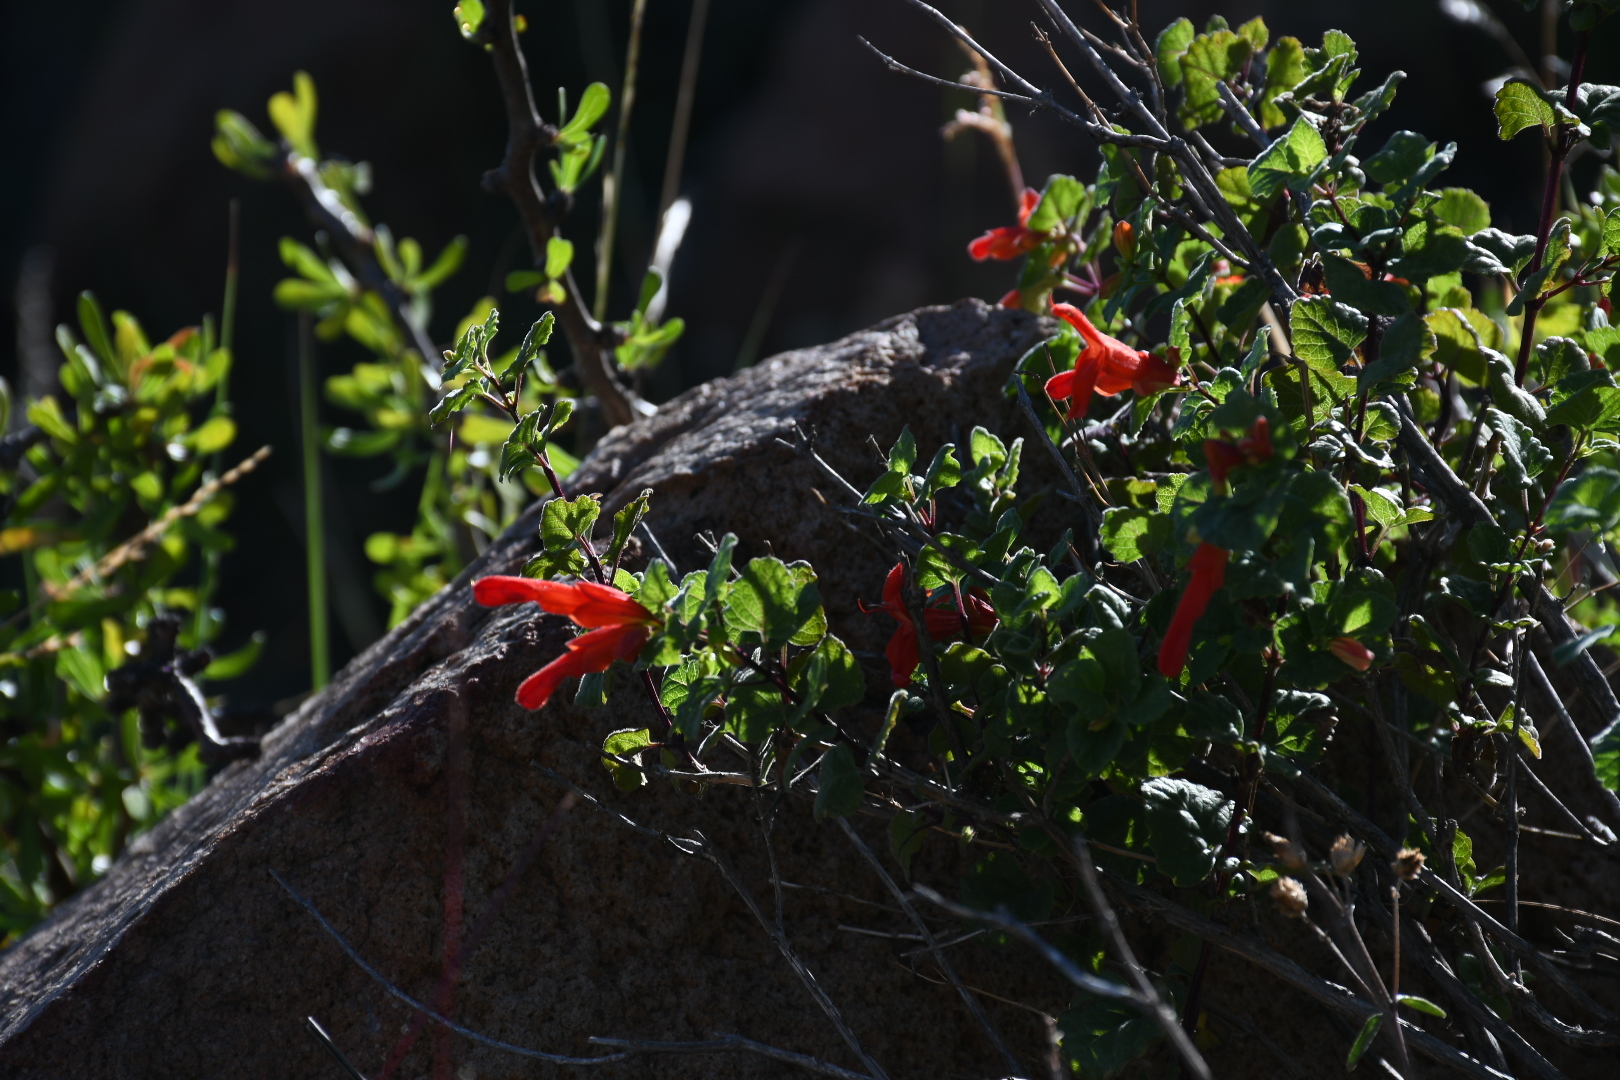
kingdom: Plantae
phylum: Tracheophyta
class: Magnoliopsida
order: Lamiales
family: Lamiaceae
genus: Salvia
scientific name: Salvia regla
